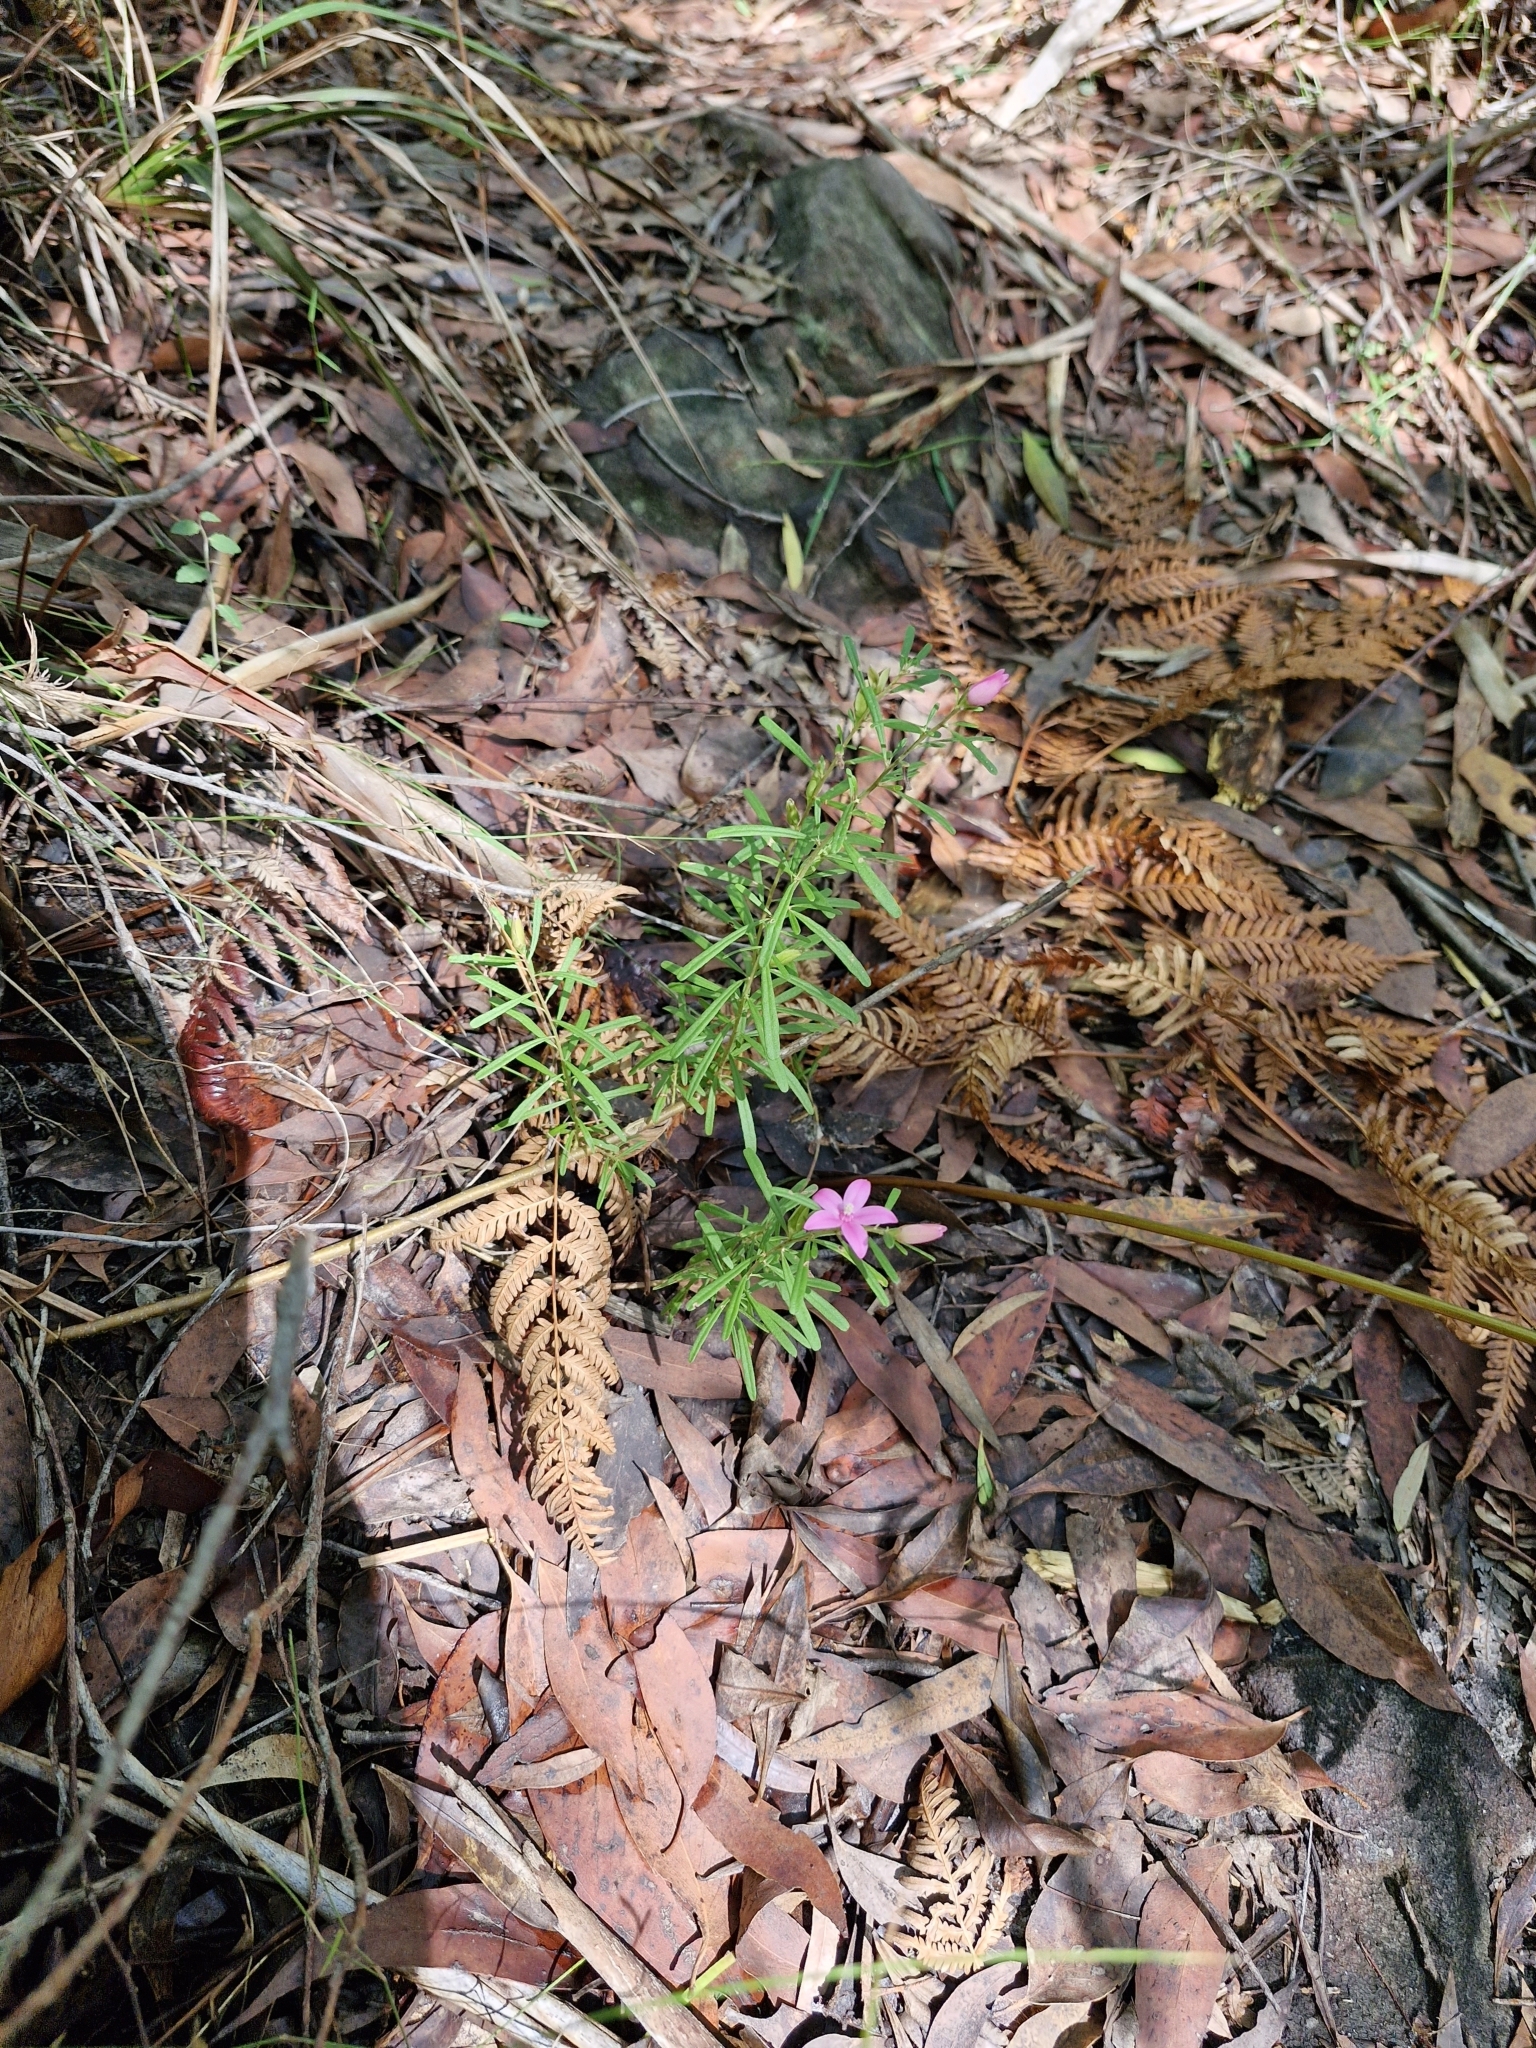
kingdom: Plantae
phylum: Tracheophyta
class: Magnoliopsida
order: Sapindales
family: Rutaceae
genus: Crowea
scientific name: Crowea exalata
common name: Small crowea
